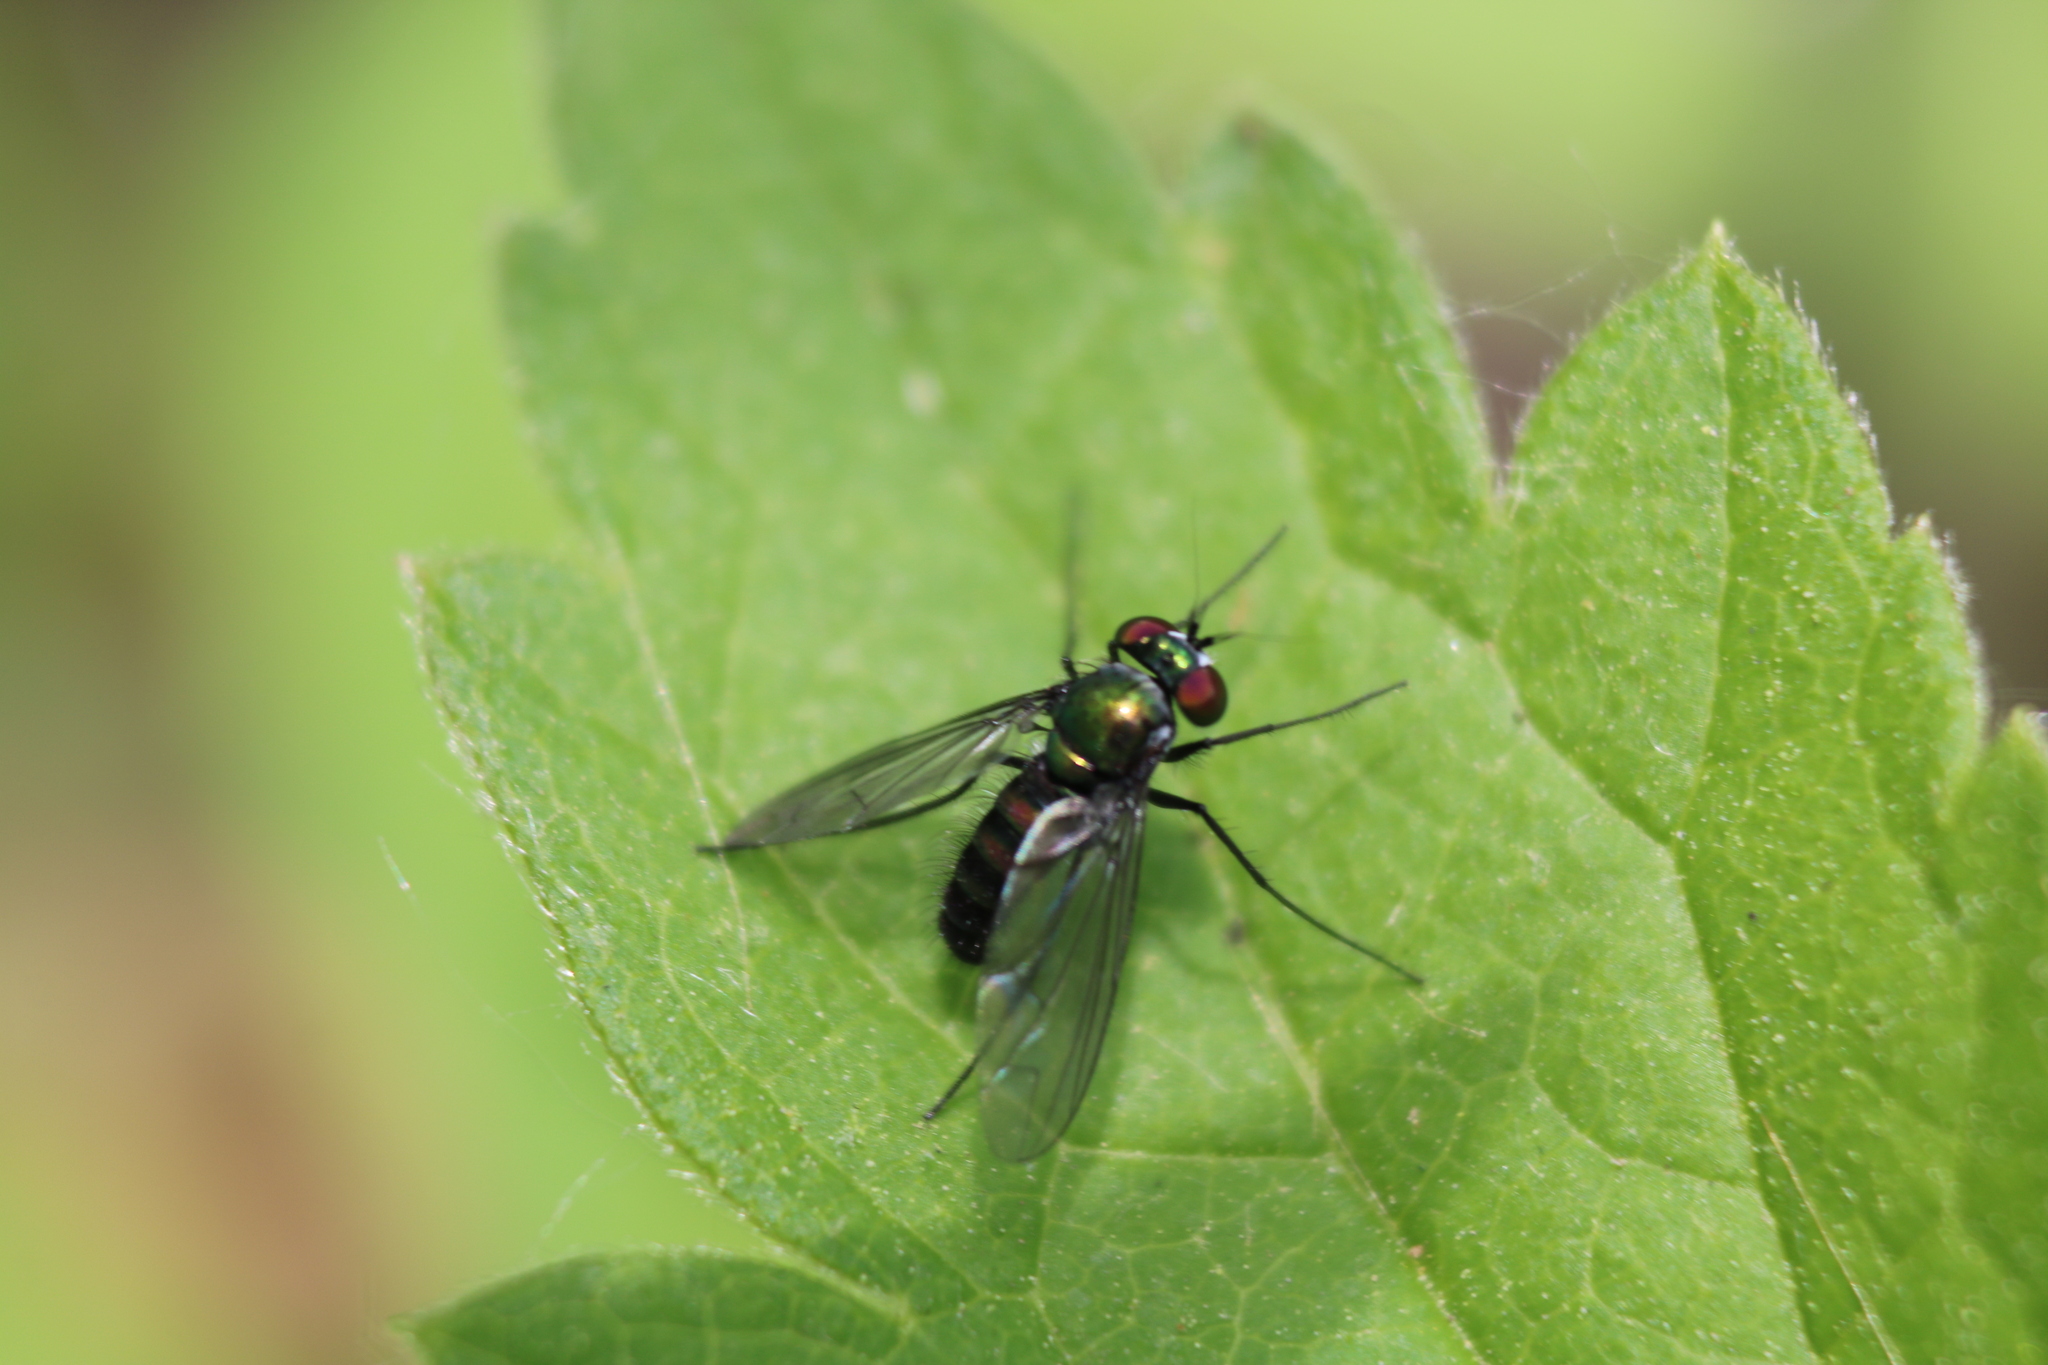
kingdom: Animalia
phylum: Arthropoda
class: Insecta
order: Diptera
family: Dolichopodidae
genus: Condylostylus
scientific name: Condylostylus patibulatus
